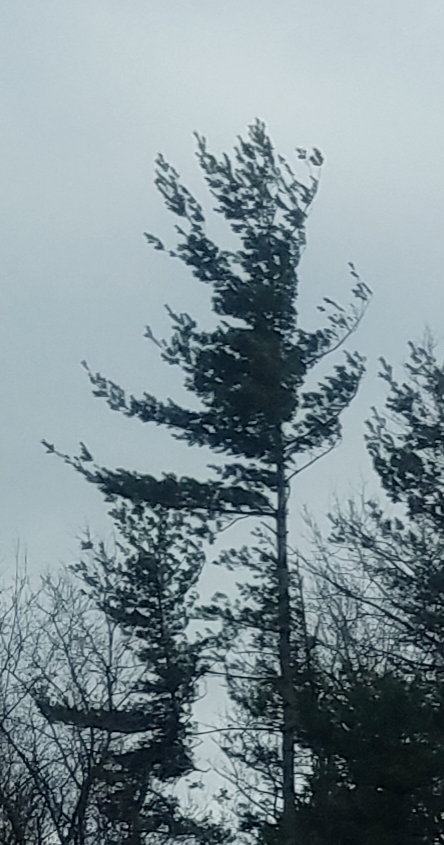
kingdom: Plantae
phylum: Tracheophyta
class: Pinopsida
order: Pinales
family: Pinaceae
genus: Pinus
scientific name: Pinus strobus
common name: Weymouth pine
